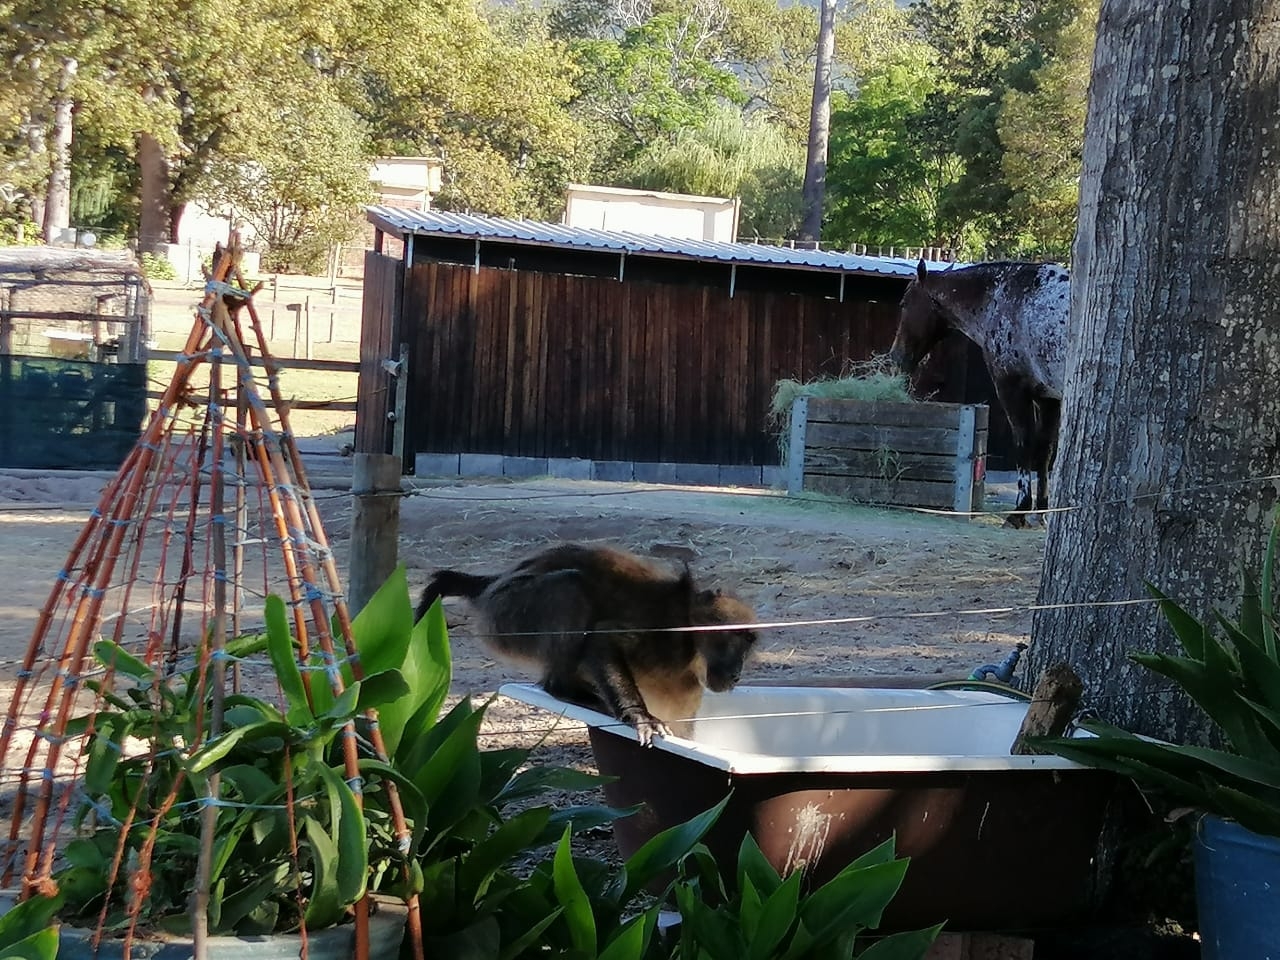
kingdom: Animalia
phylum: Chordata
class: Mammalia
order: Primates
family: Cercopithecidae
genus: Papio
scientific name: Papio ursinus
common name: Chacma baboon
